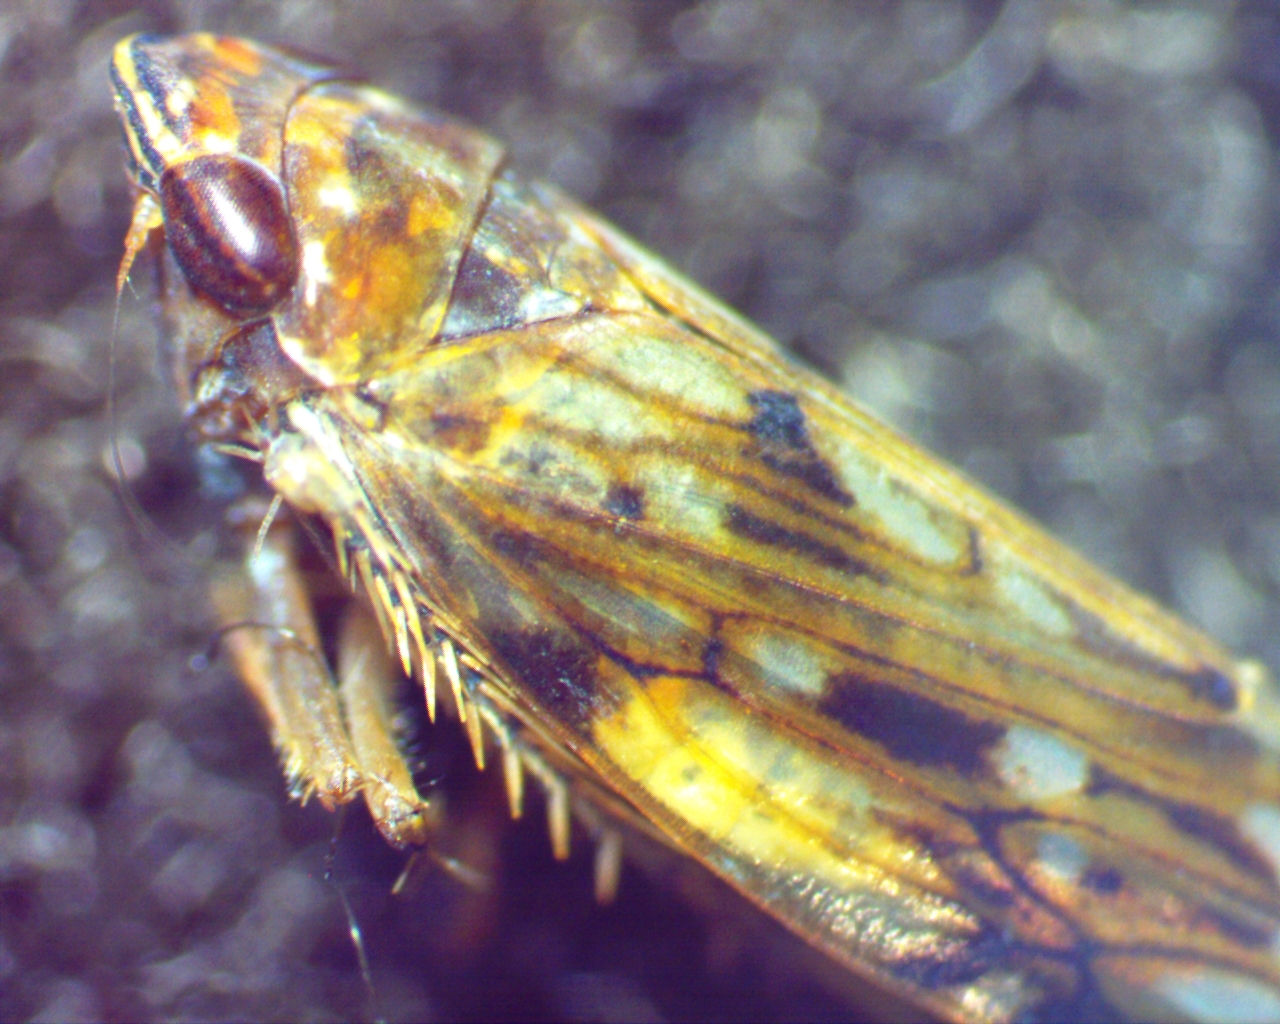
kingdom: Animalia
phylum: Arthropoda
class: Insecta
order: Hemiptera
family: Cicadellidae
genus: Scaphoideus
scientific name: Scaphoideus carinatus
